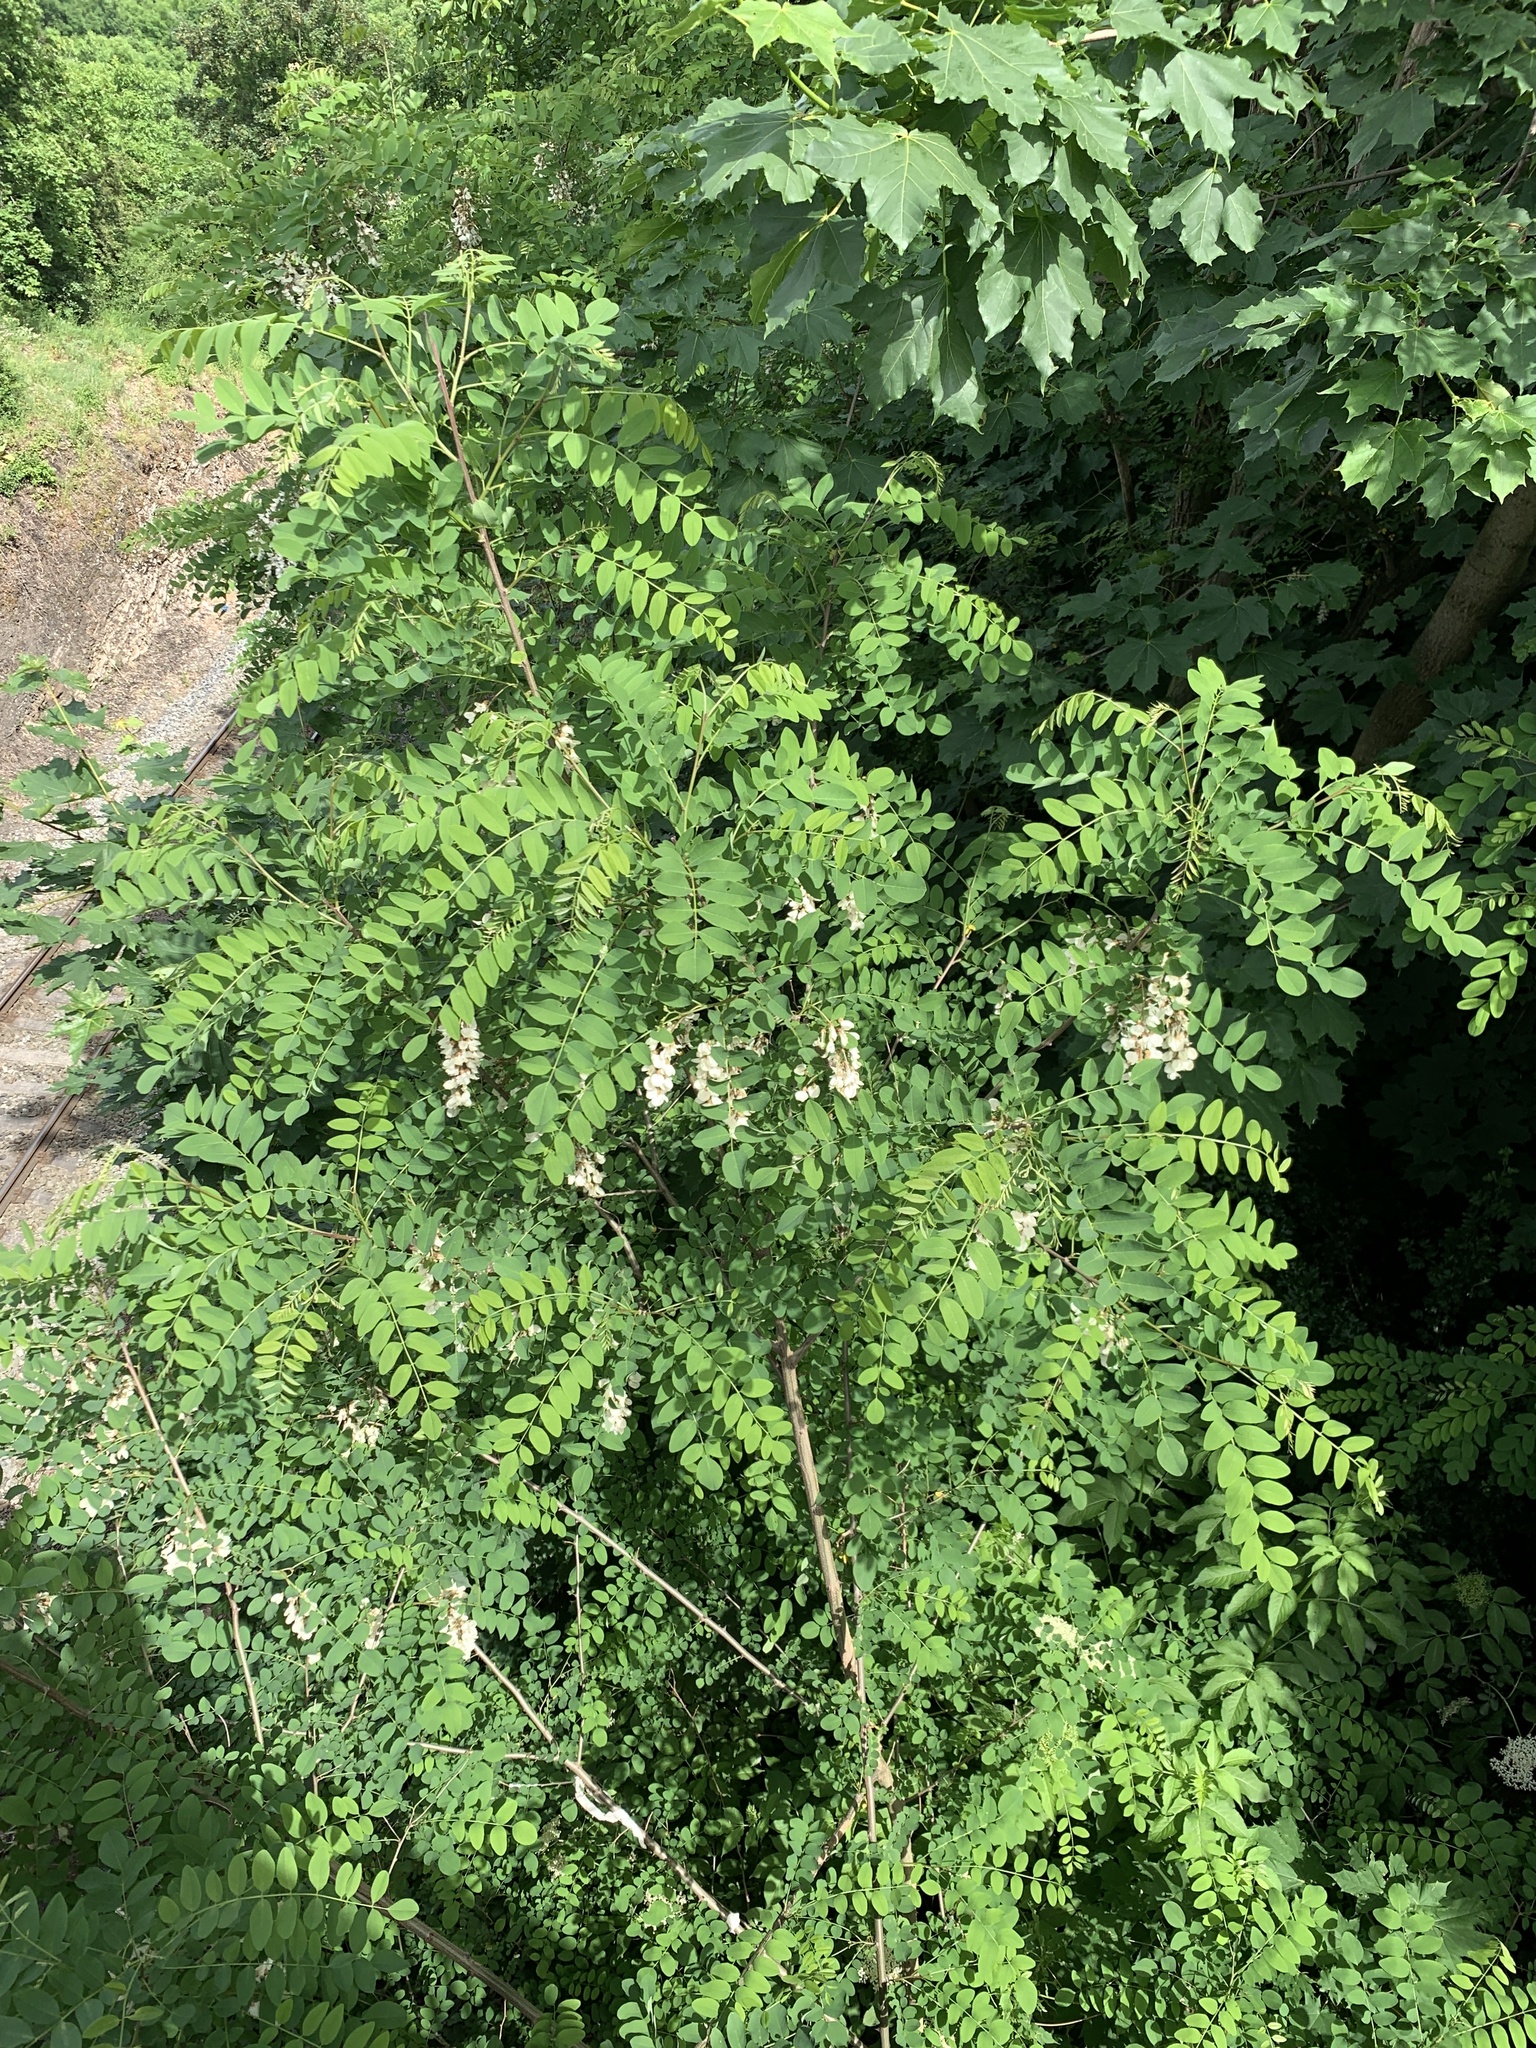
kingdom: Plantae
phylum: Tracheophyta
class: Magnoliopsida
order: Fabales
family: Fabaceae
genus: Robinia
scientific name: Robinia pseudoacacia
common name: Black locust
